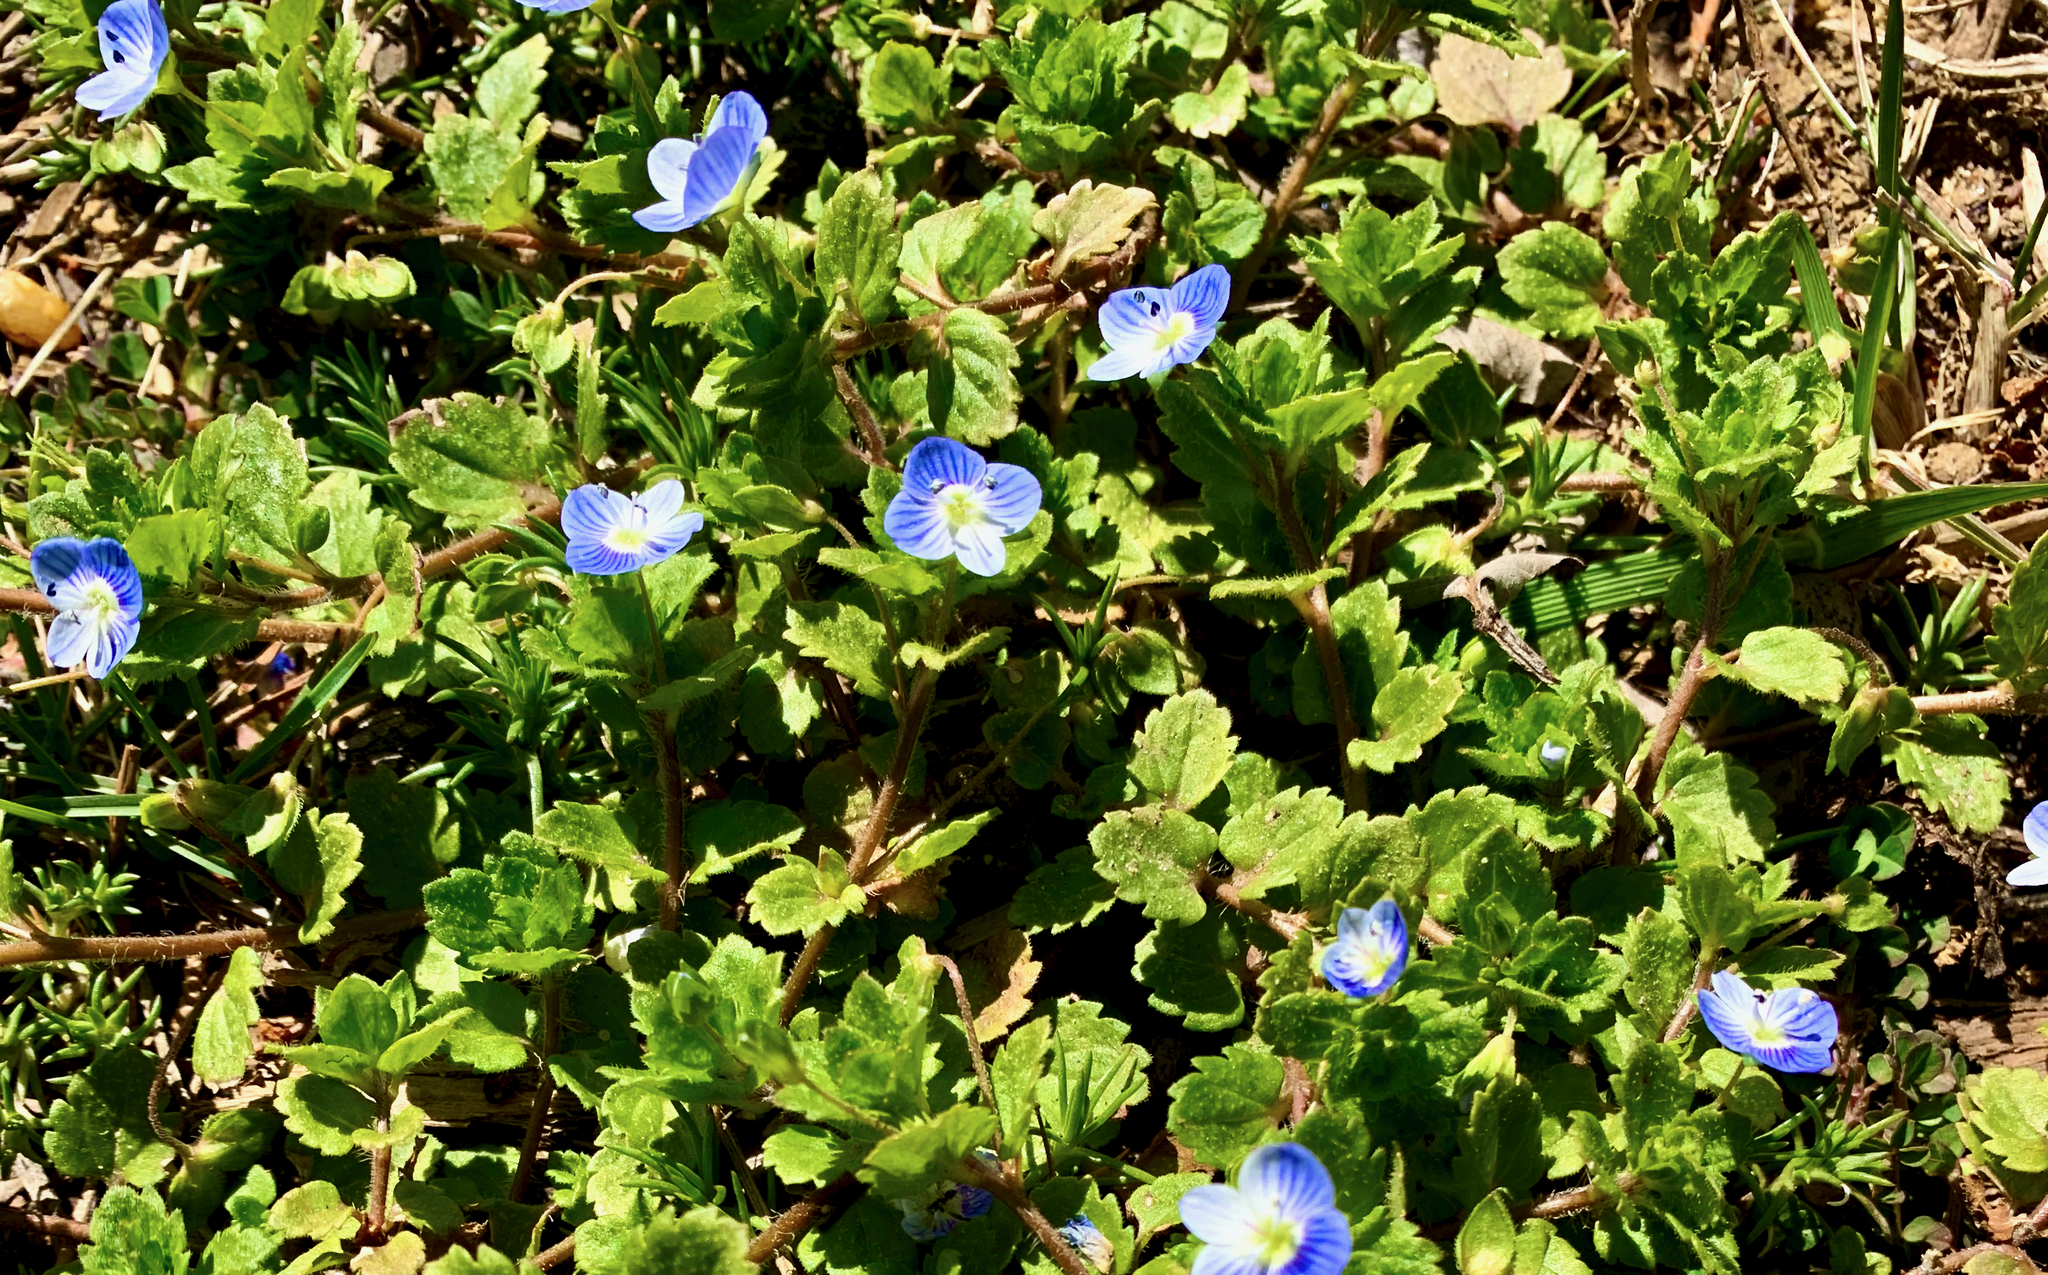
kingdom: Plantae
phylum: Tracheophyta
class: Magnoliopsida
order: Lamiales
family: Plantaginaceae
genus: Veronica
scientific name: Veronica persica
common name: Common field-speedwell
